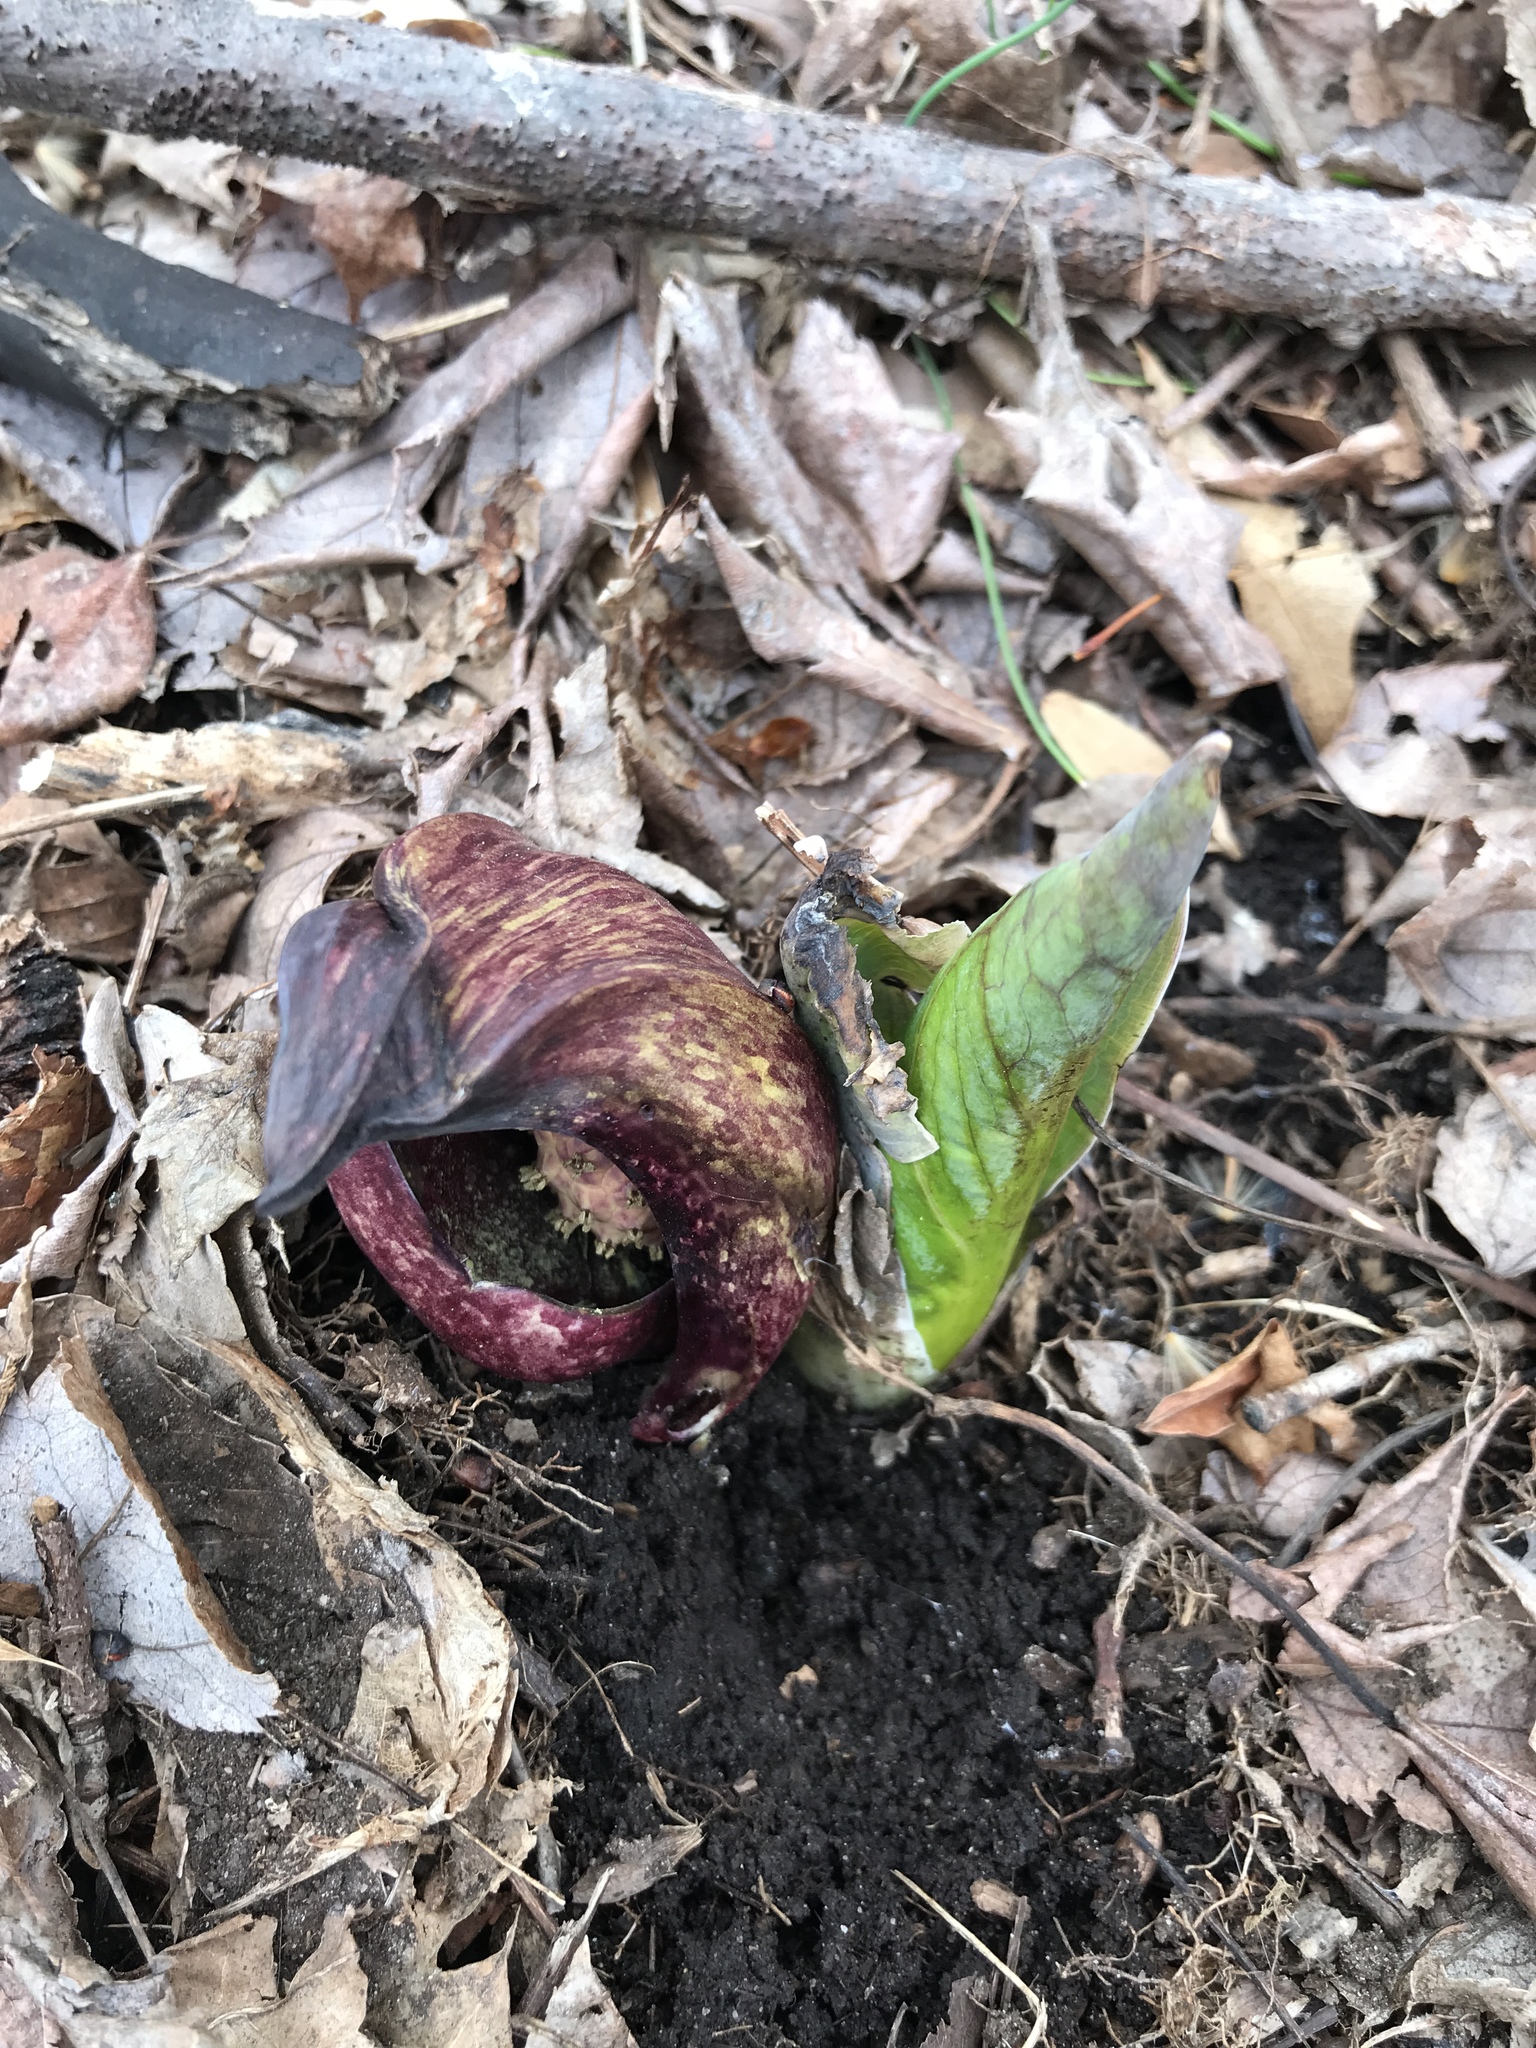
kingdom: Plantae
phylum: Tracheophyta
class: Liliopsida
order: Alismatales
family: Araceae
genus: Symplocarpus
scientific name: Symplocarpus foetidus
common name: Eastern skunk cabbage
